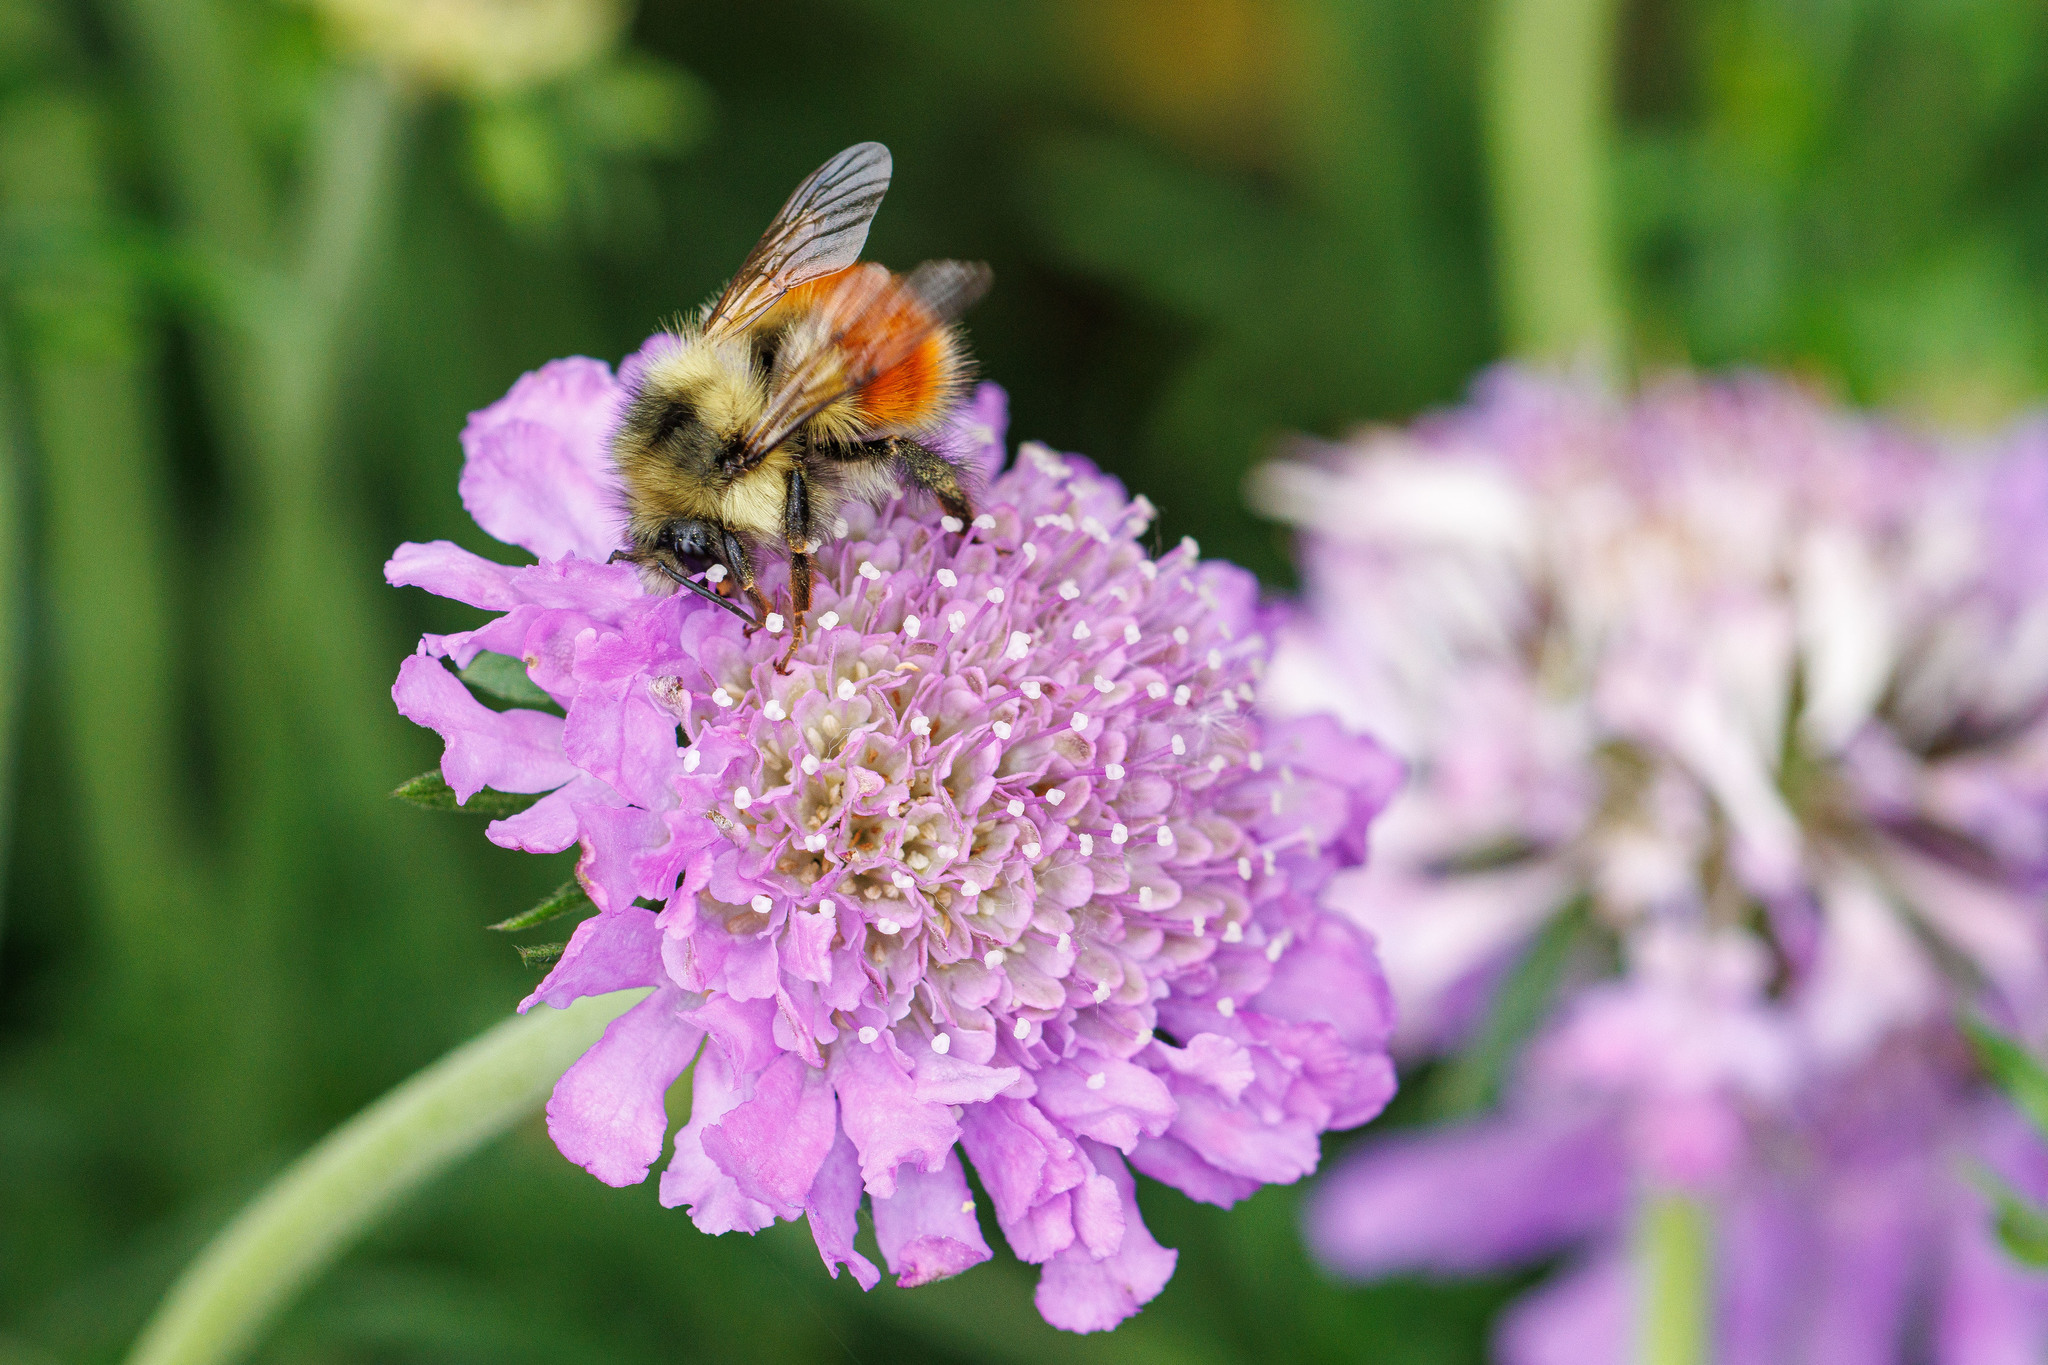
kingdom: Animalia
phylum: Arthropoda
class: Insecta
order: Hymenoptera
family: Apidae
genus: Bombus
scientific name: Bombus melanopygus
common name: Black tail bumble bee
